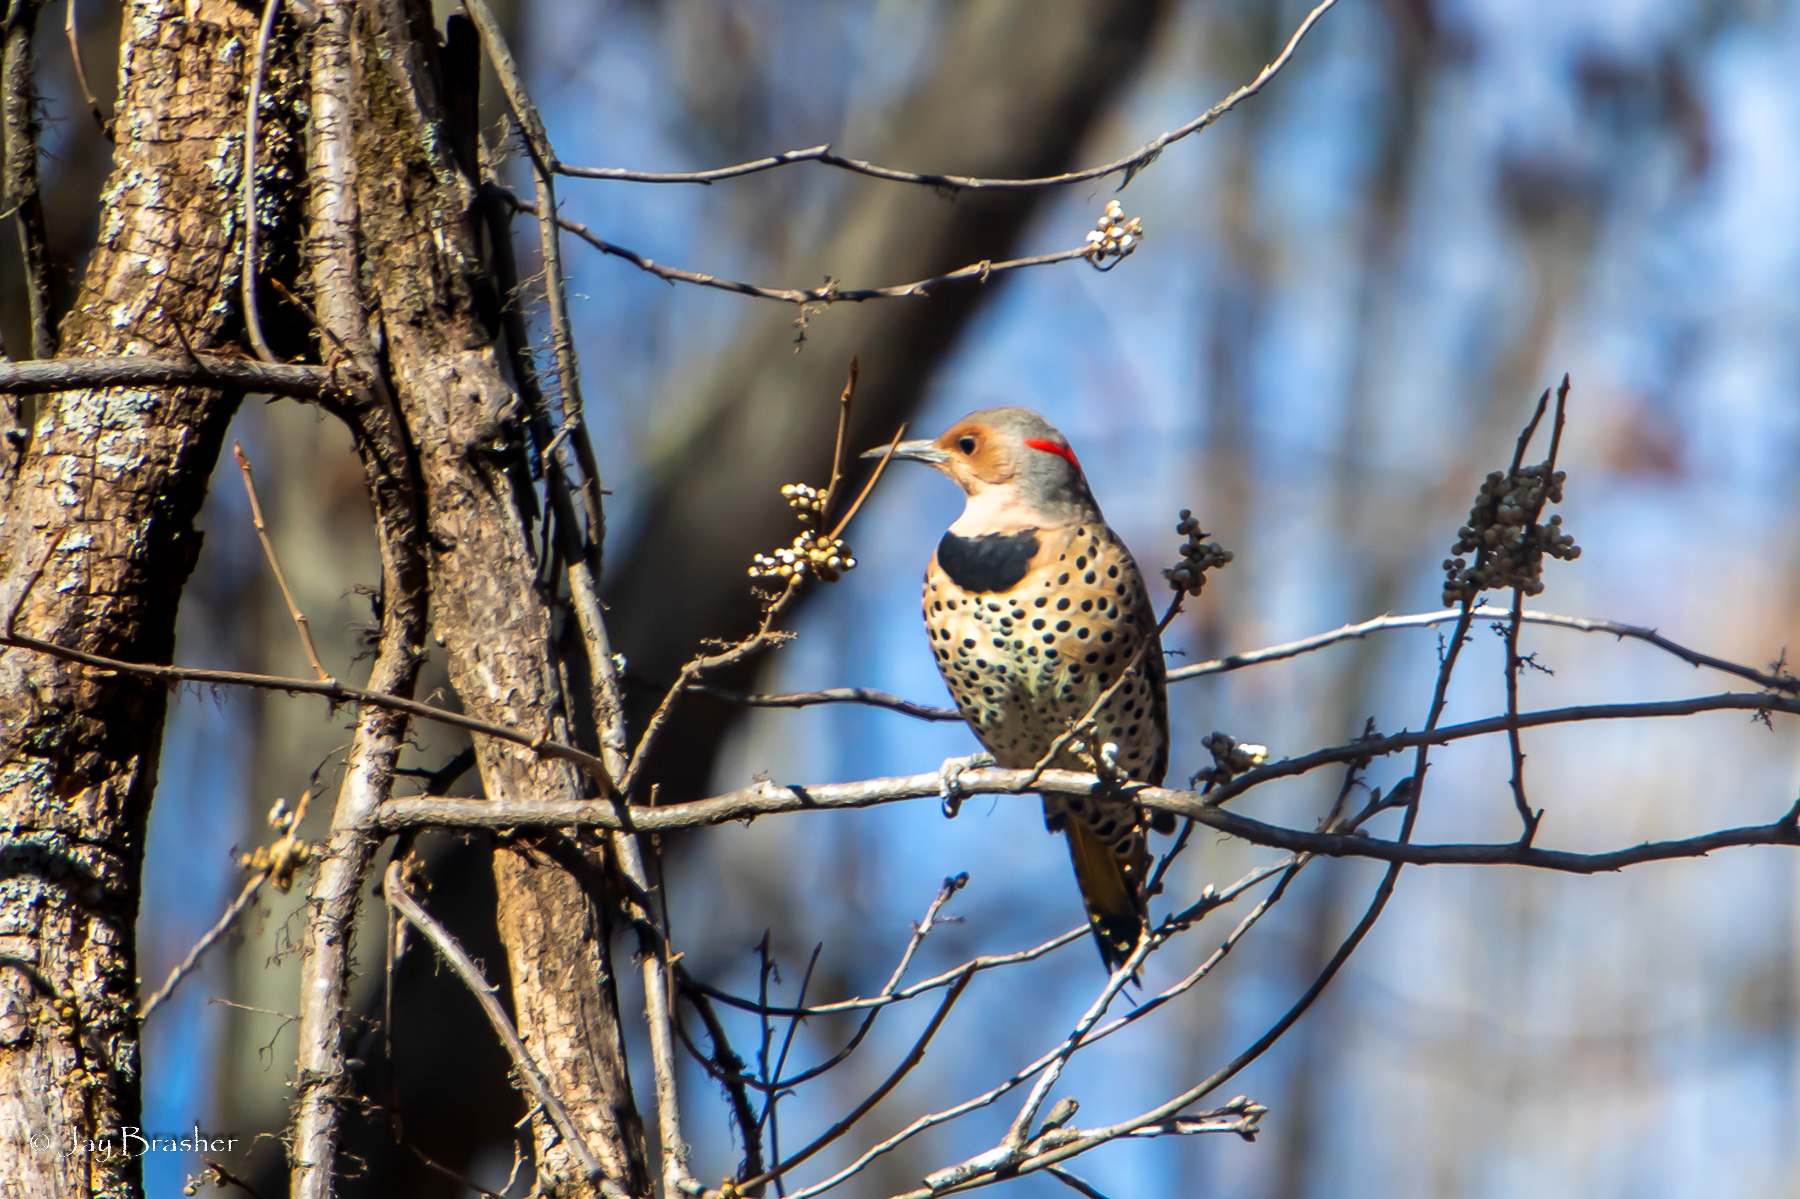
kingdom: Animalia
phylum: Chordata
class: Aves
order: Piciformes
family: Picidae
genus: Colaptes
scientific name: Colaptes auratus
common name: Northern flicker
